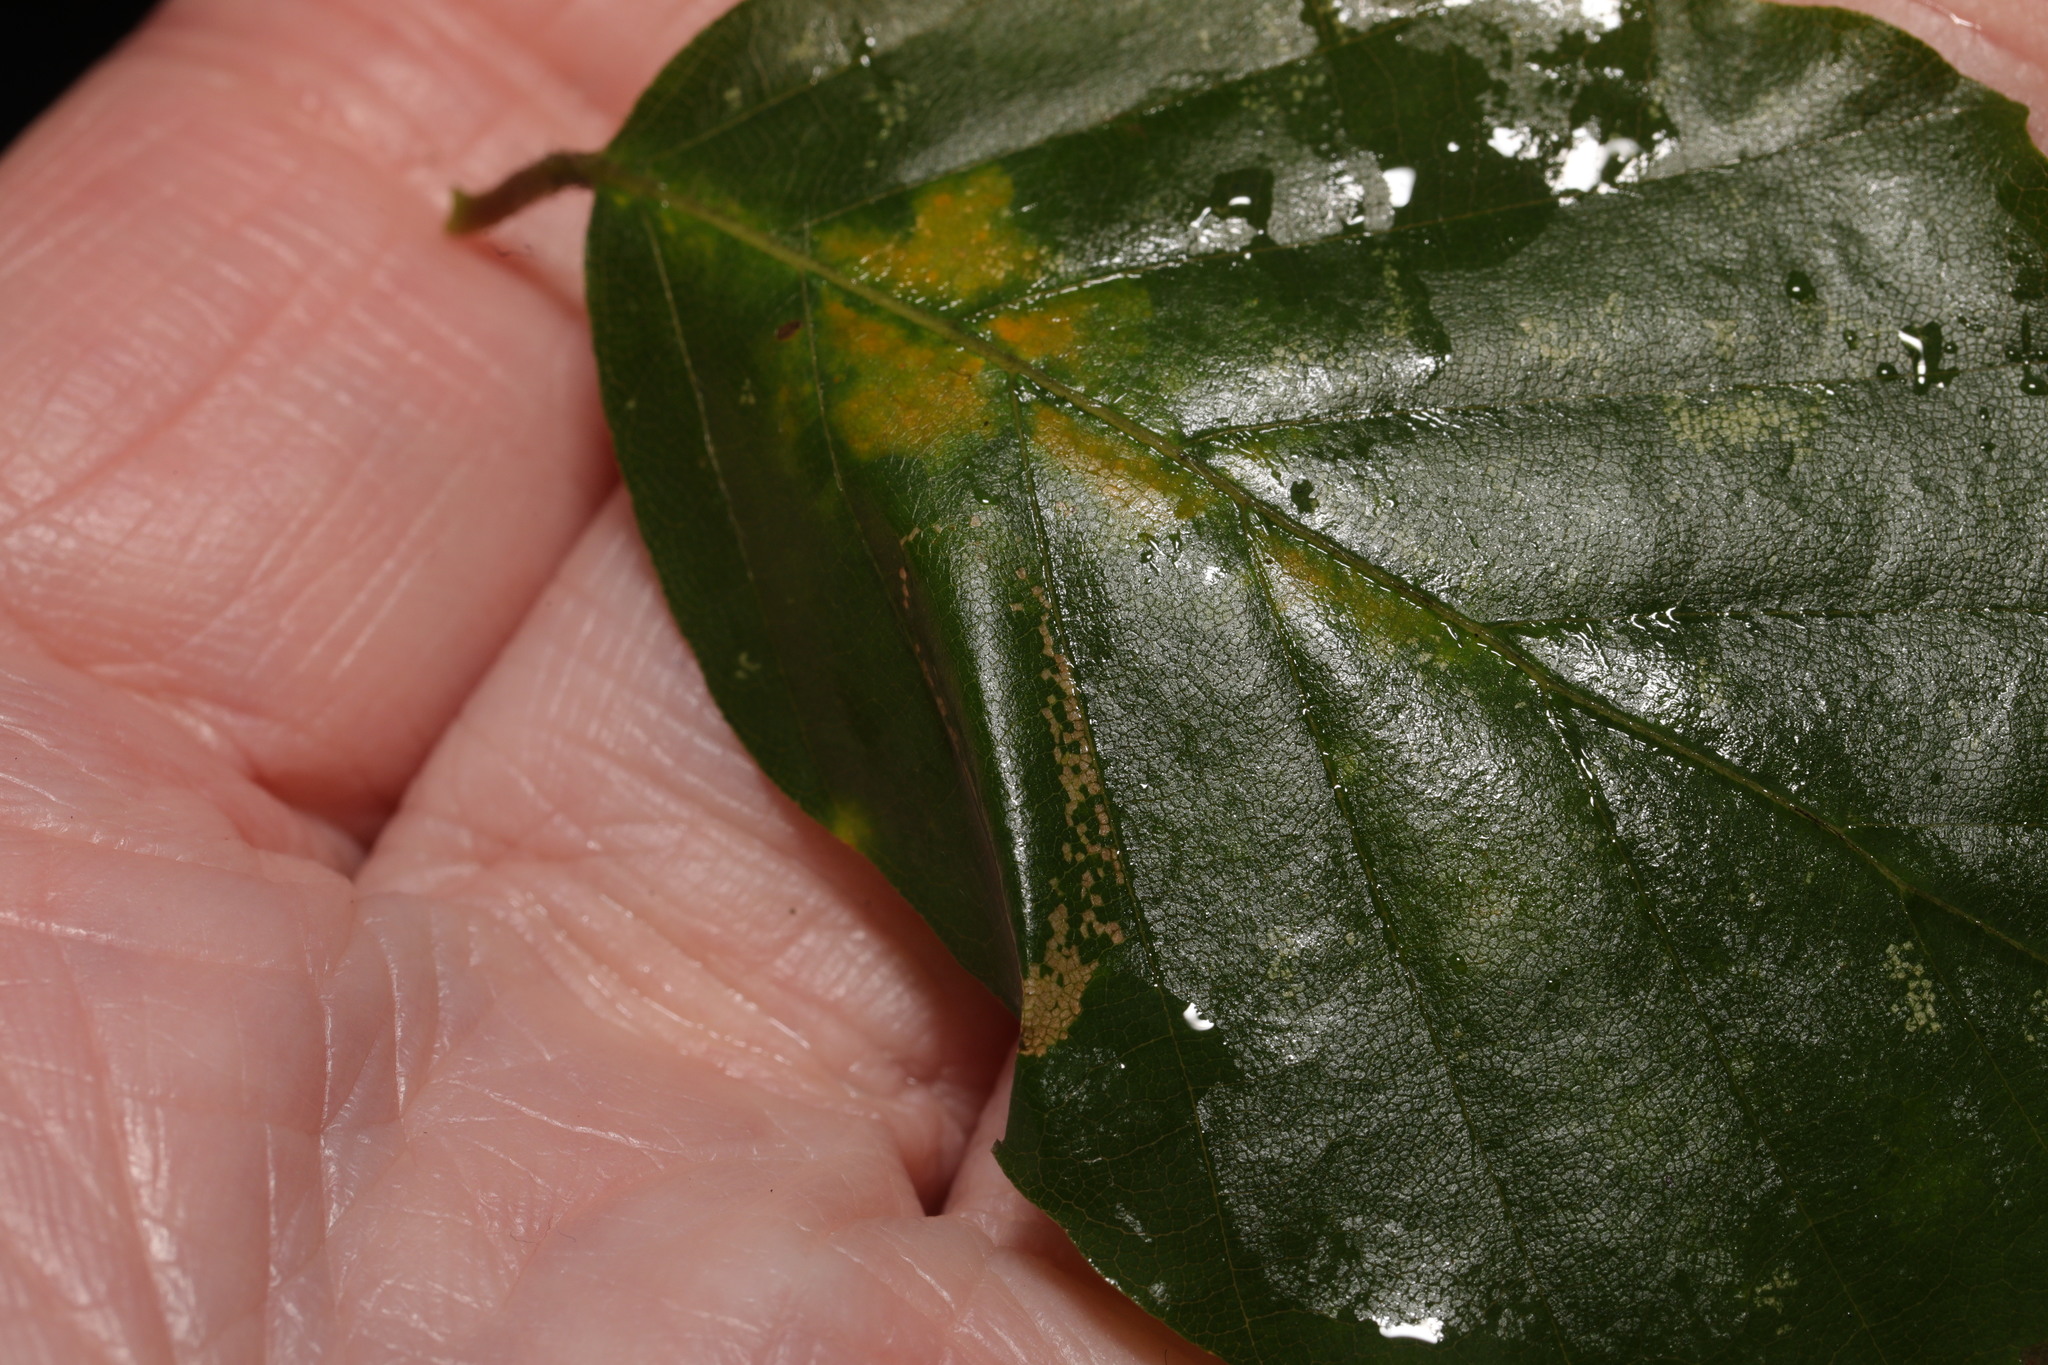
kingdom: Animalia
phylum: Arthropoda
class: Insecta
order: Lepidoptera
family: Gracillariidae
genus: Phyllonorycter
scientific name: Phyllonorycter maestingella
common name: Beech midget
